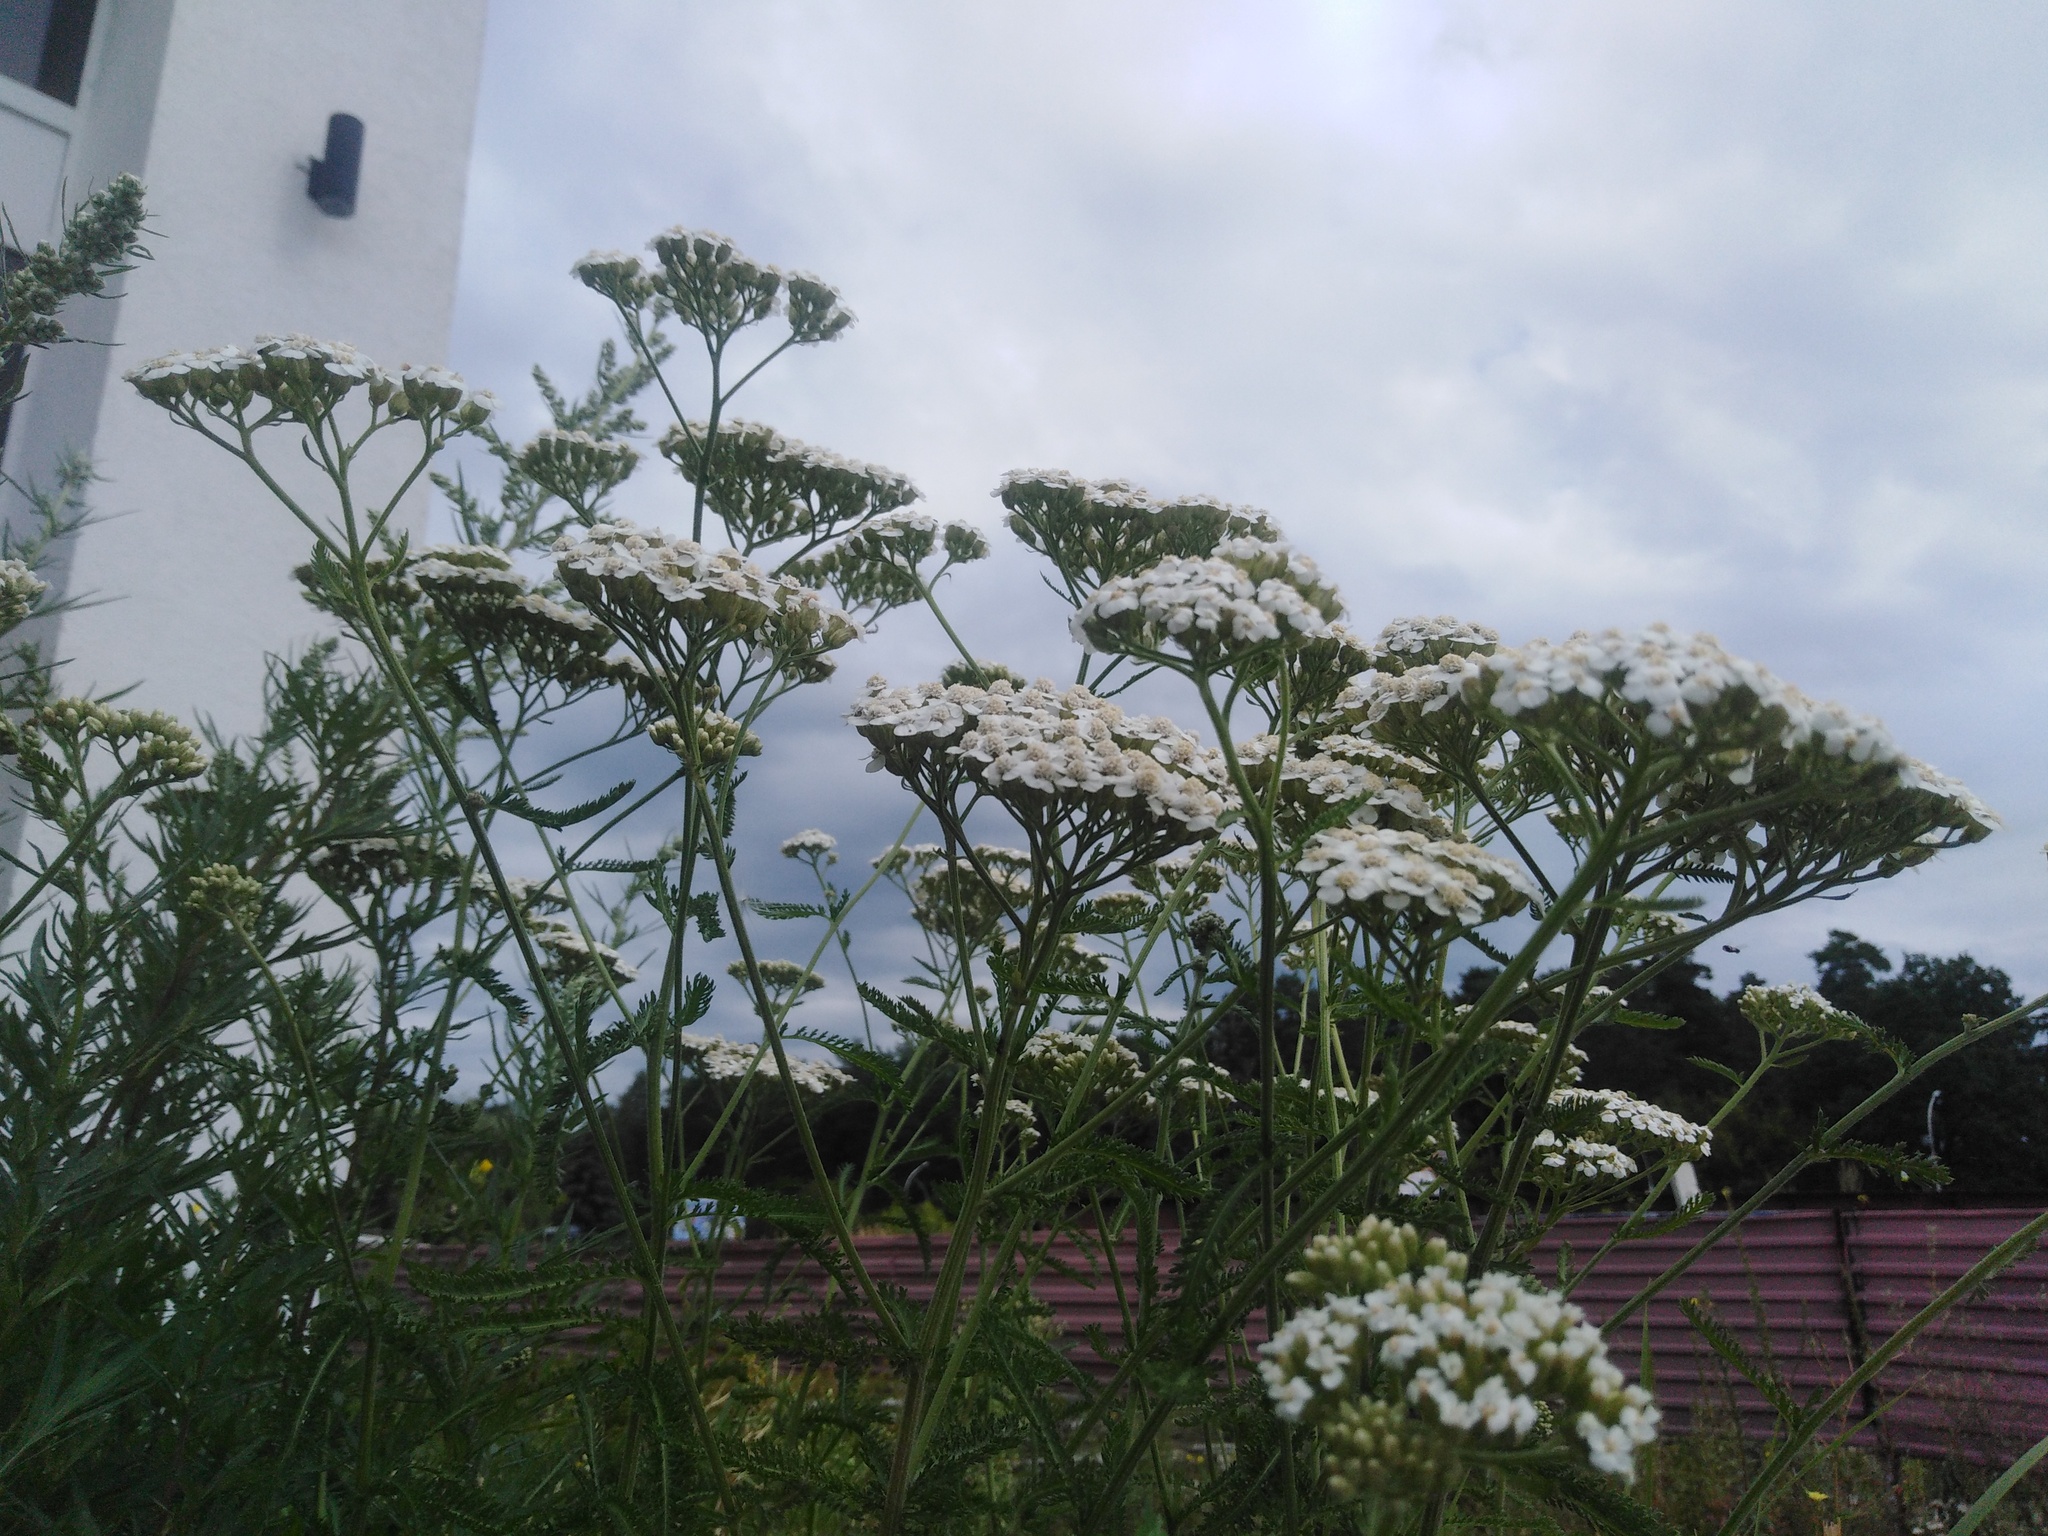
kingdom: Plantae
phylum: Tracheophyta
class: Magnoliopsida
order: Asterales
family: Asteraceae
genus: Achillea
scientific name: Achillea millefolium
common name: Yarrow
